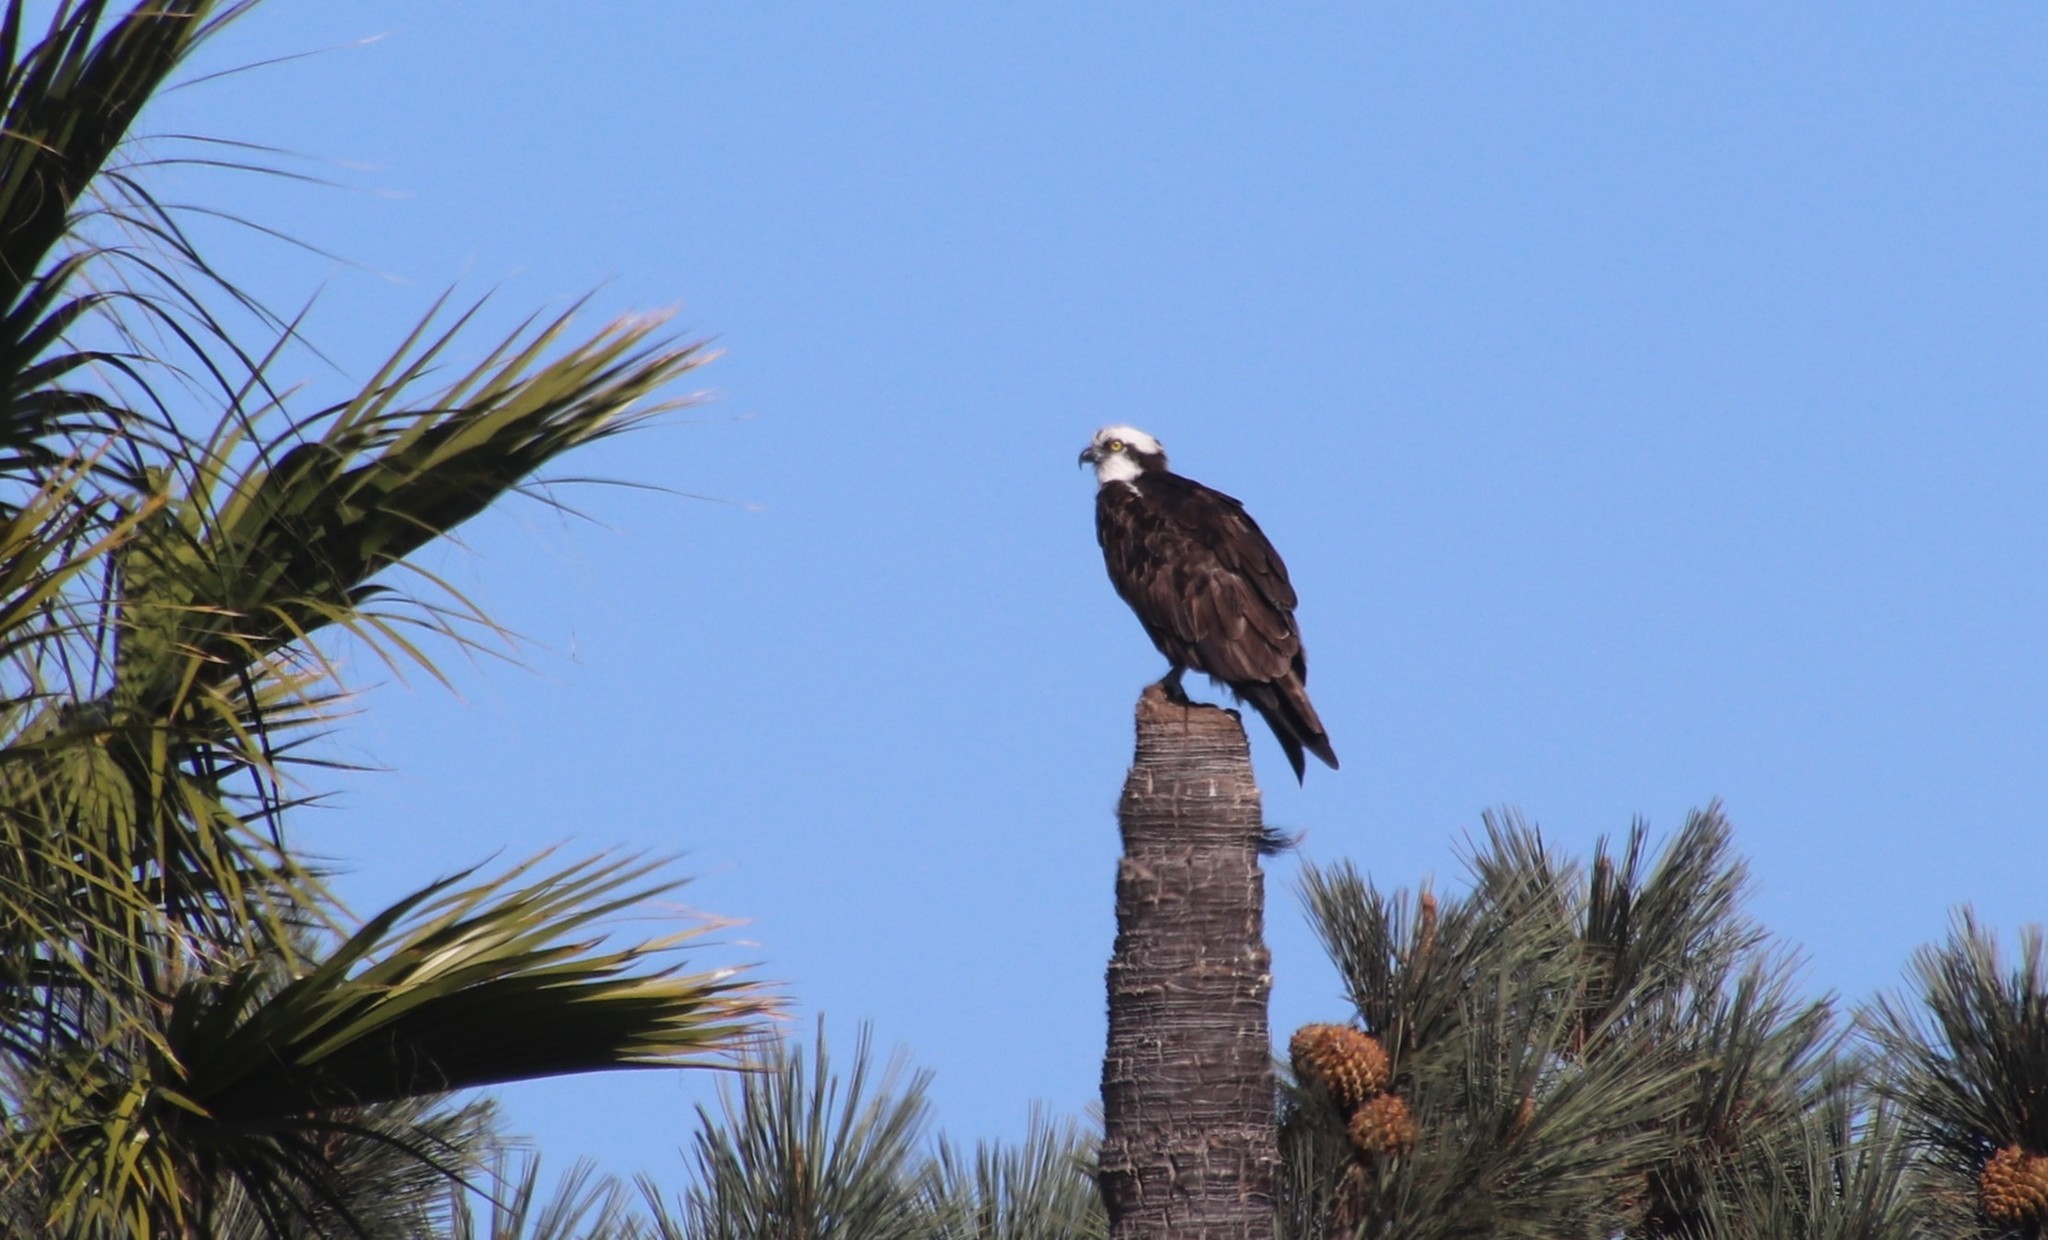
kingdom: Animalia
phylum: Chordata
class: Aves
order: Accipitriformes
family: Pandionidae
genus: Pandion
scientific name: Pandion haliaetus
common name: Osprey
